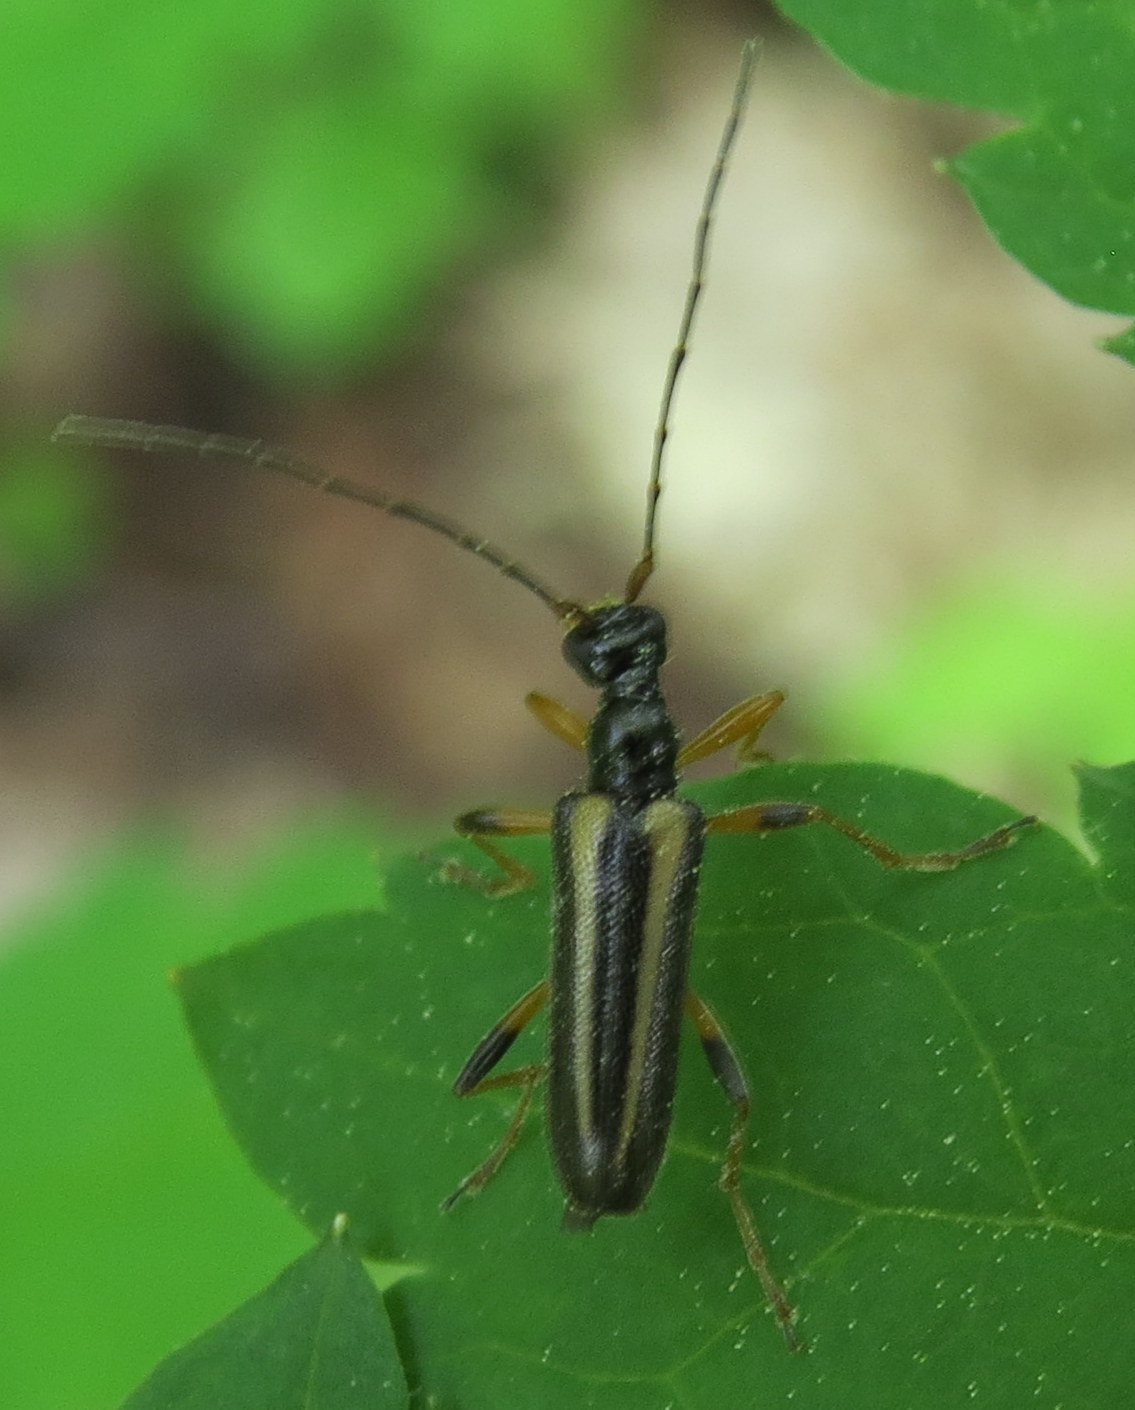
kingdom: Animalia
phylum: Arthropoda
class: Insecta
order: Coleoptera
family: Cerambycidae
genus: Pidonia
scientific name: Pidonia ruficollis
